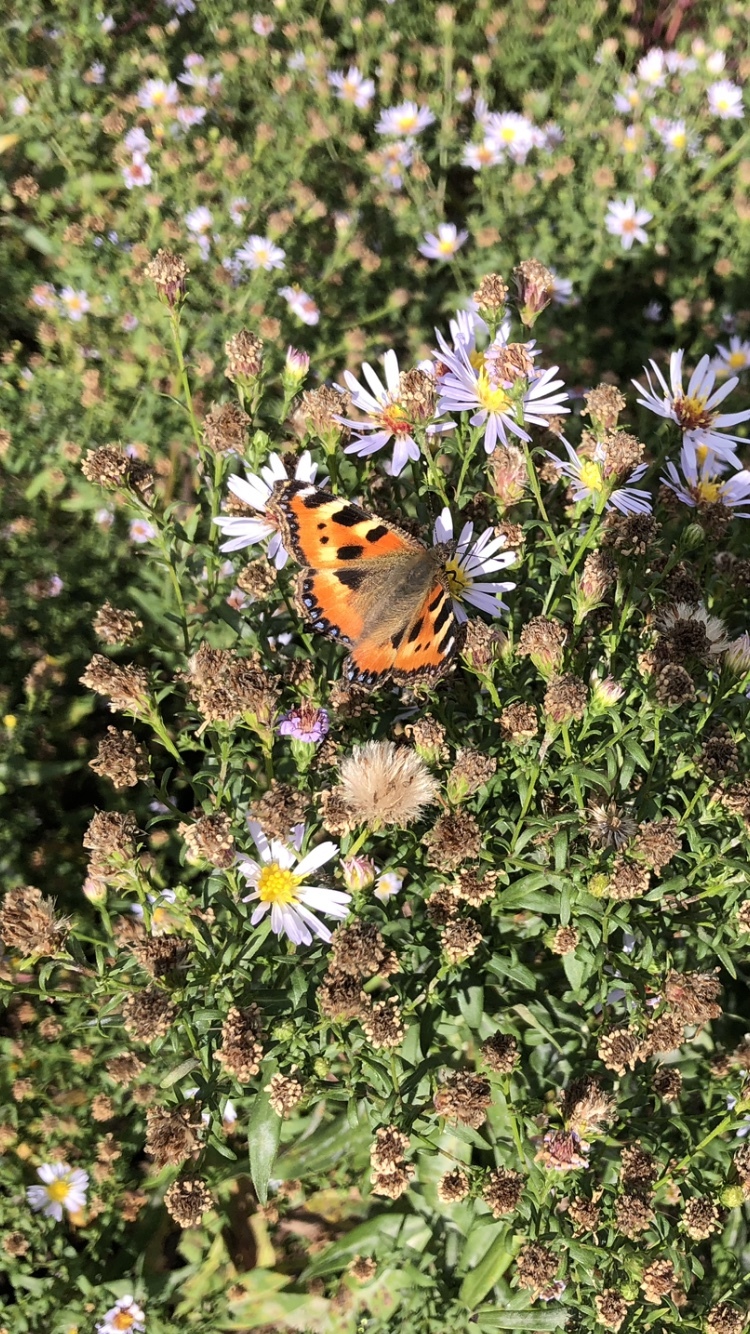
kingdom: Animalia
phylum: Arthropoda
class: Insecta
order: Lepidoptera
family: Nymphalidae
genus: Aglais
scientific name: Aglais urticae
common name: Small tortoiseshell
